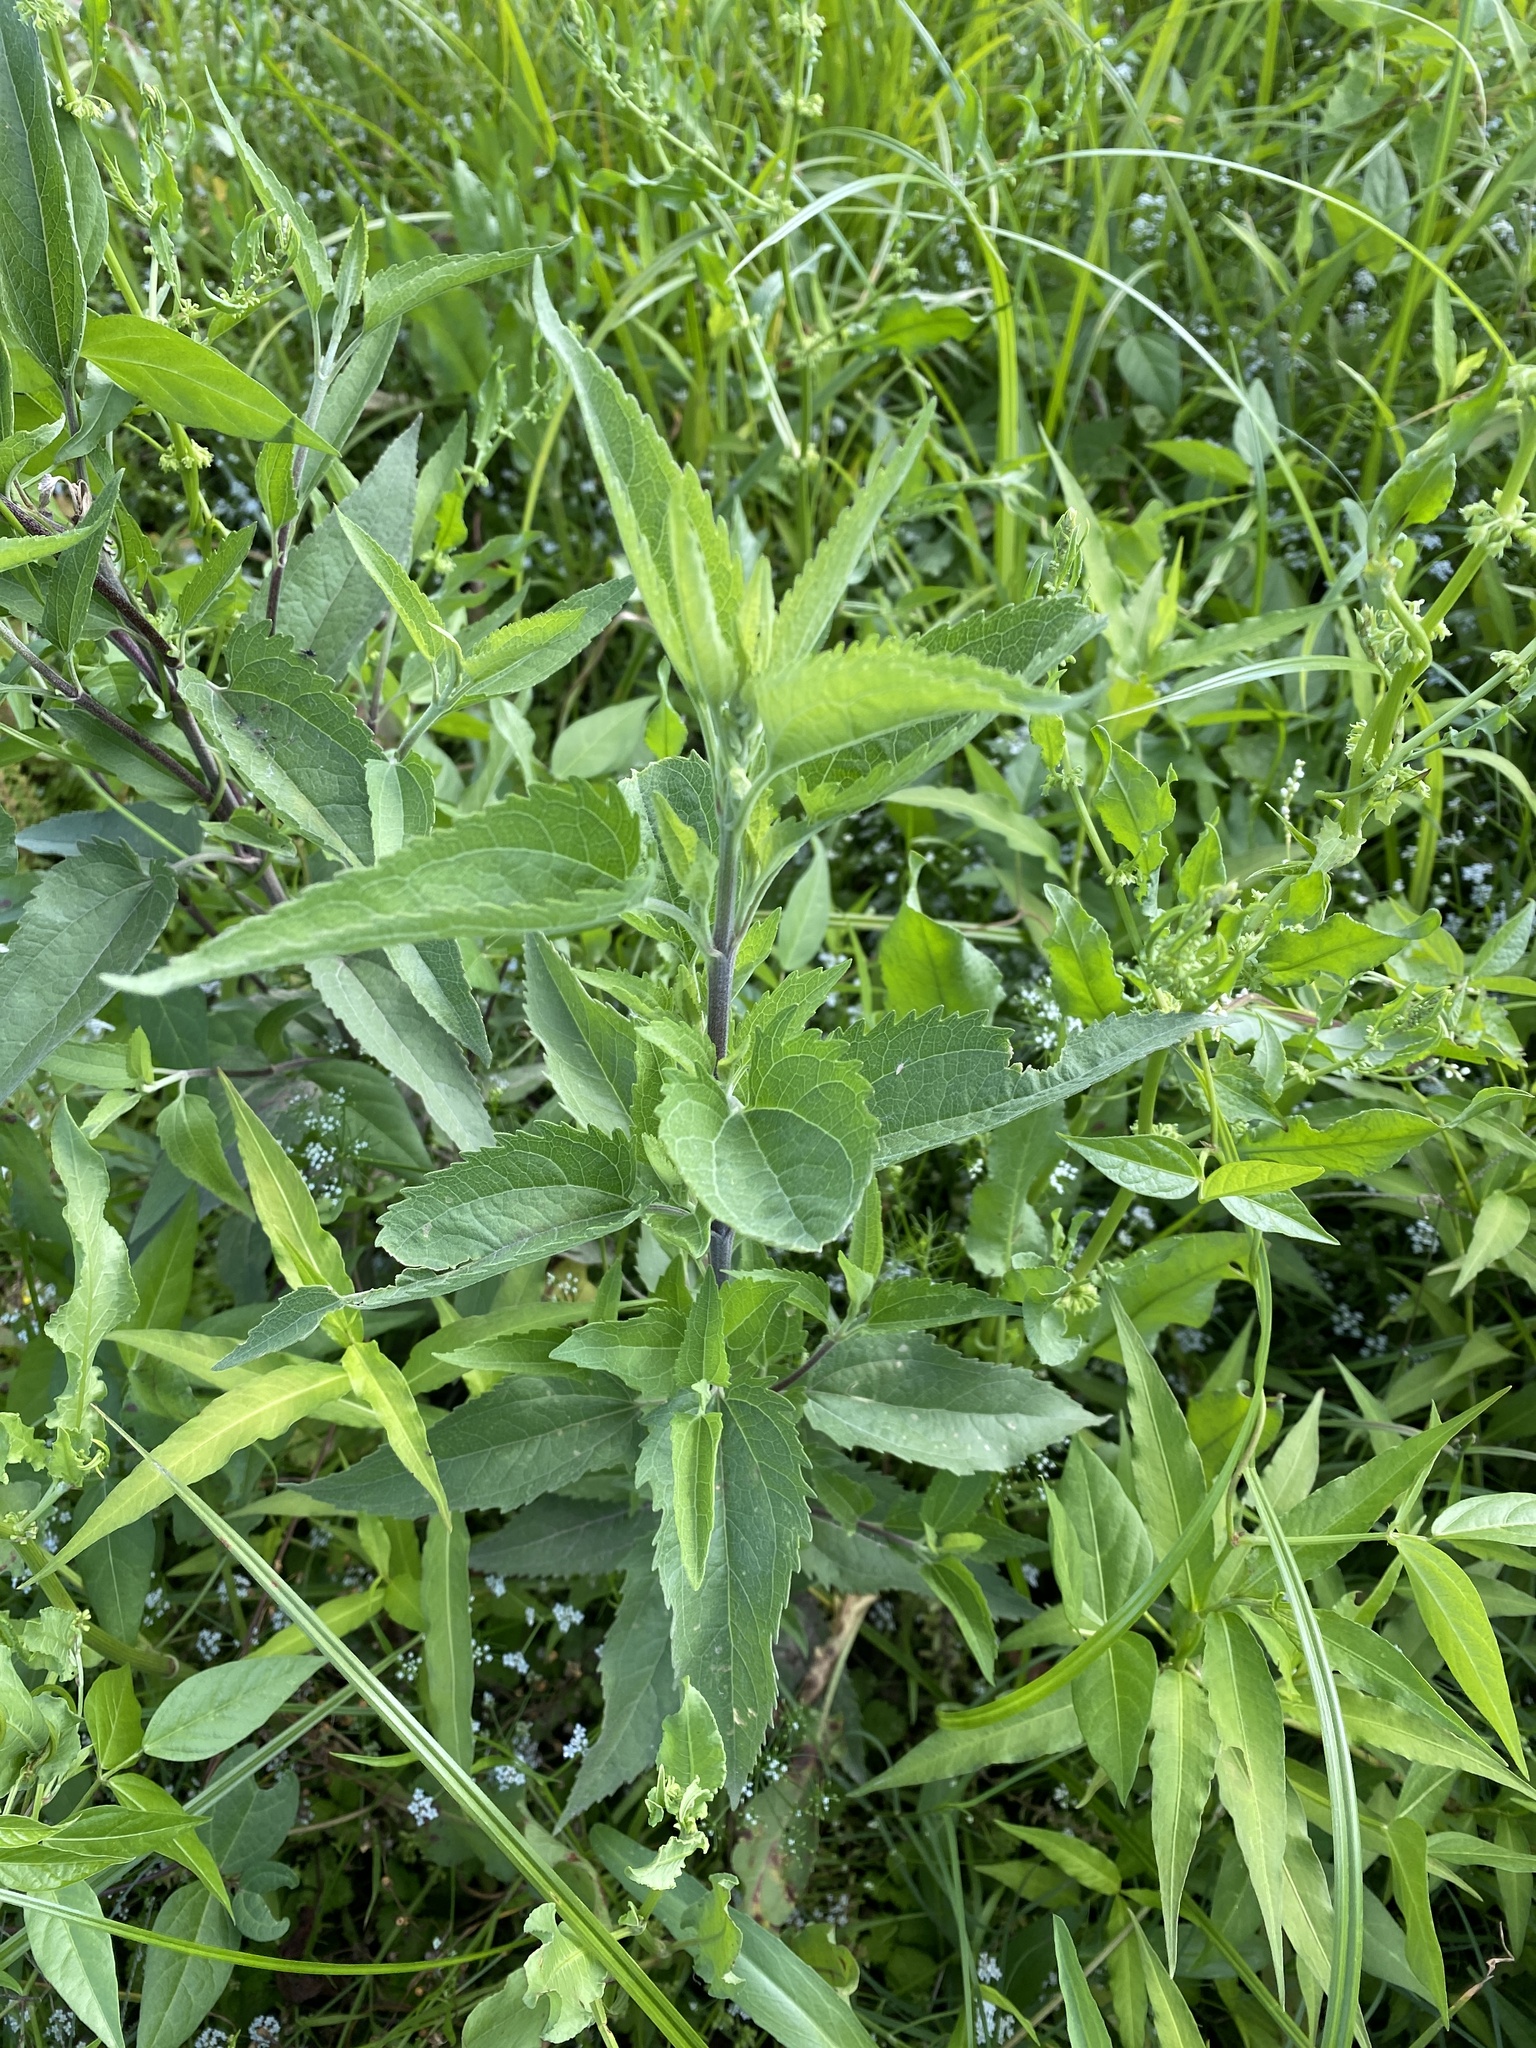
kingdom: Plantae
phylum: Tracheophyta
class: Magnoliopsida
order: Asterales
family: Asteraceae
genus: Eupatorium
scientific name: Eupatorium serotinum
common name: Late boneset
